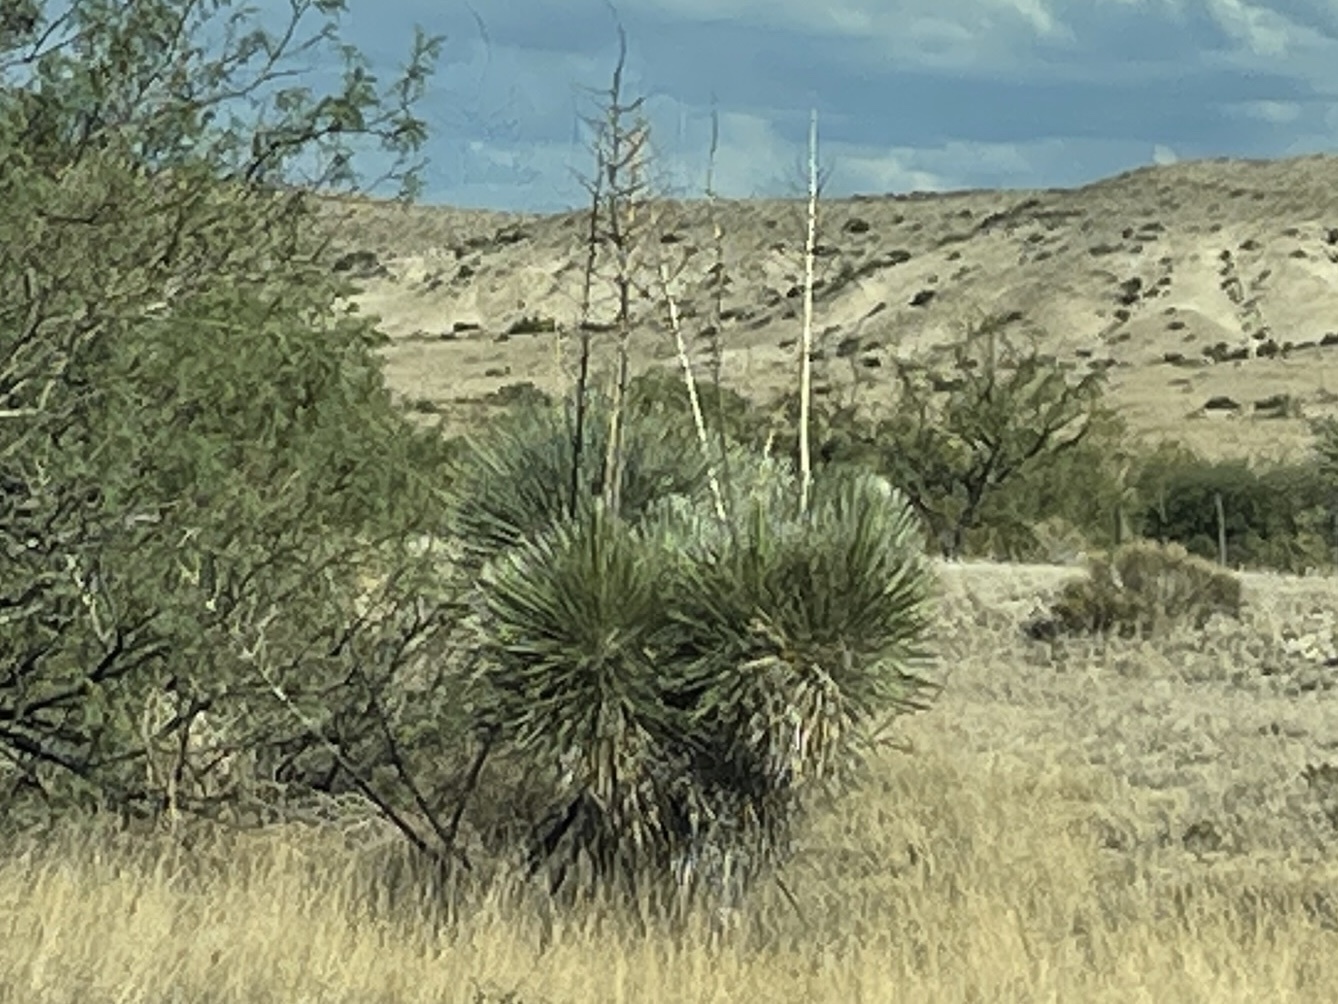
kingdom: Plantae
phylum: Tracheophyta
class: Liliopsida
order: Asparagales
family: Asparagaceae
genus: Yucca
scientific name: Yucca elata
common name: Palmella
